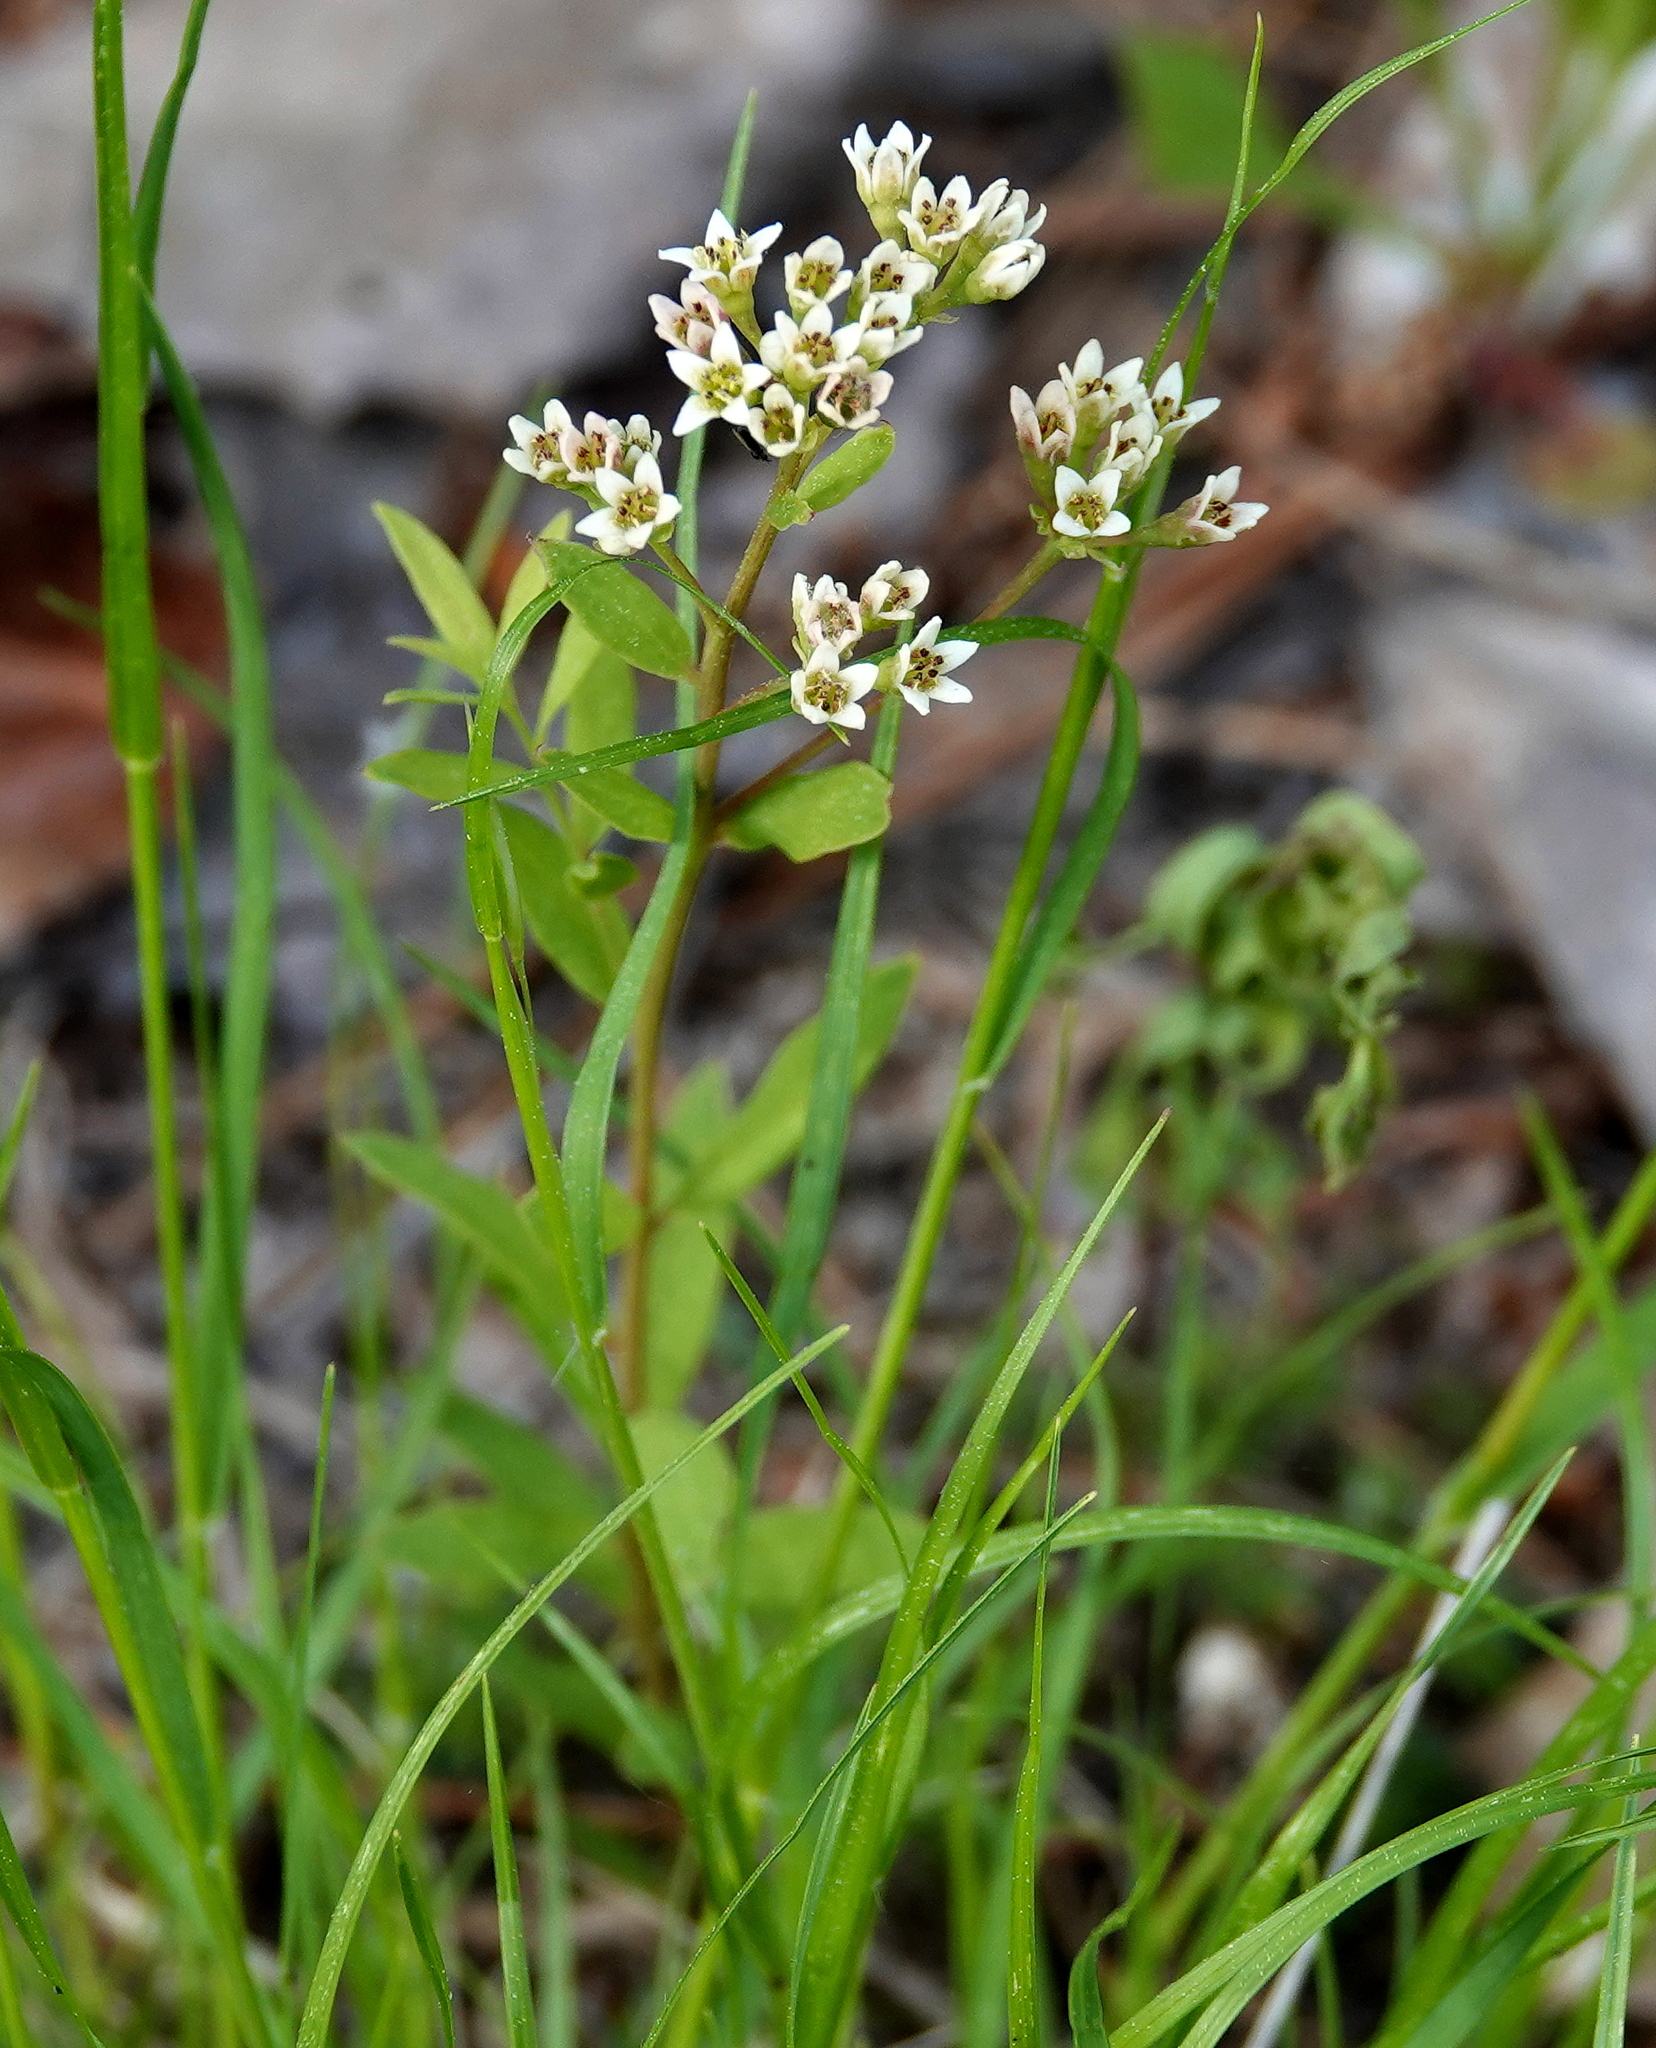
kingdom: Plantae
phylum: Tracheophyta
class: Magnoliopsida
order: Santalales
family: Comandraceae
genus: Comandra
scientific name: Comandra umbellata
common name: Bastard toadflax
